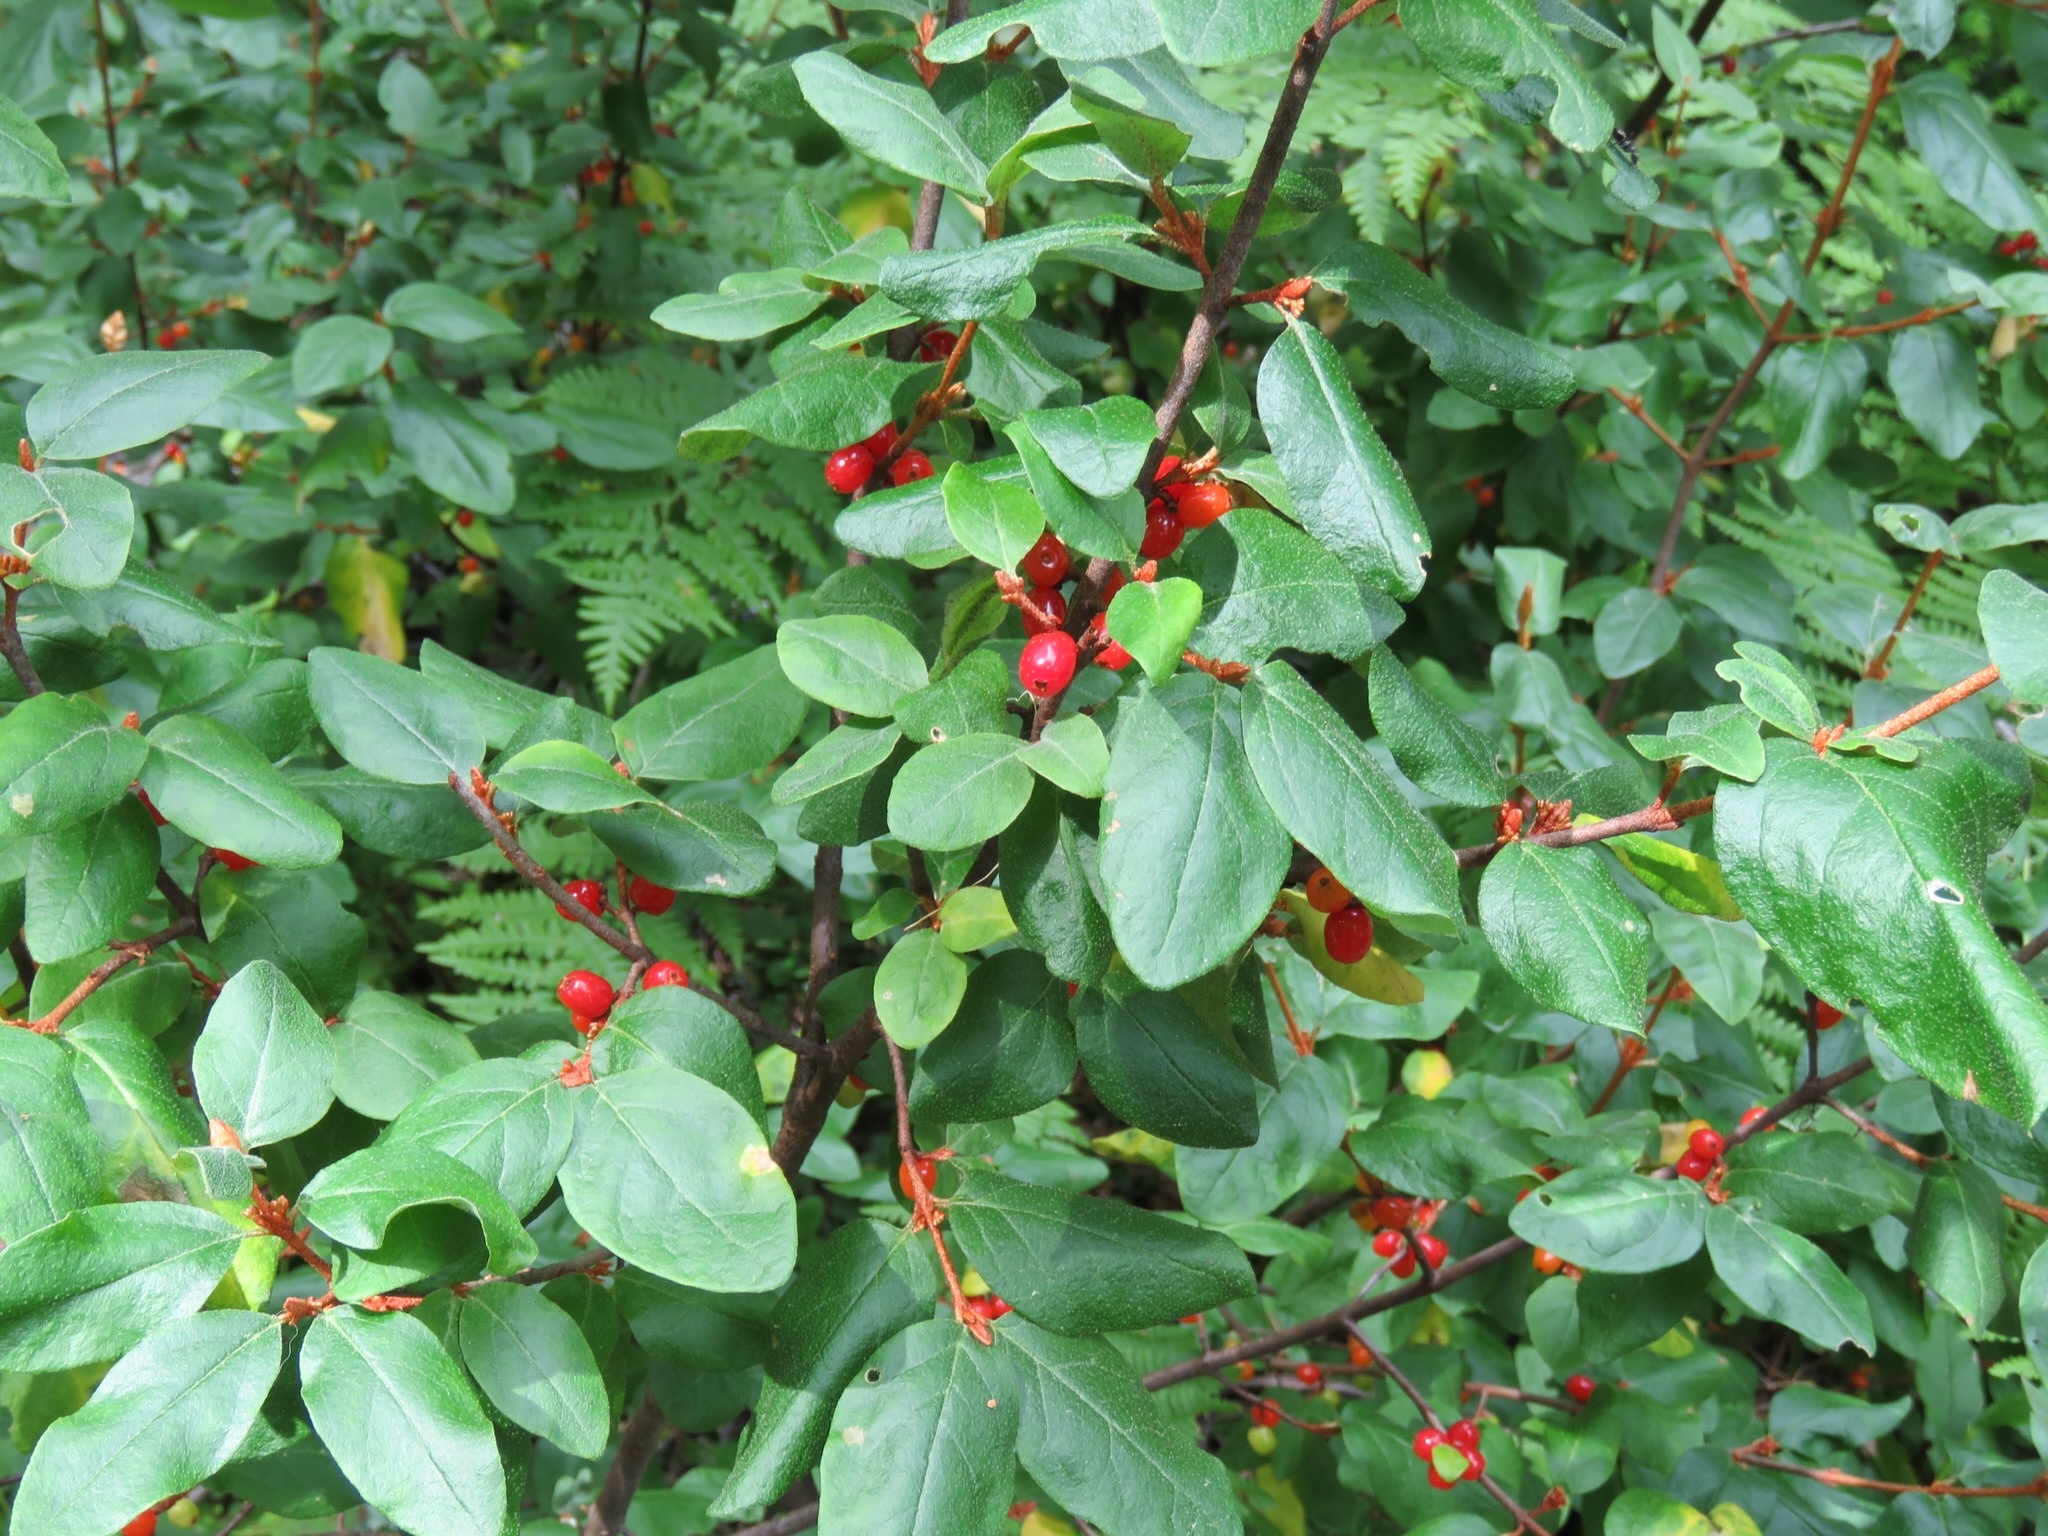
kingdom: Plantae
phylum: Tracheophyta
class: Magnoliopsida
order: Rosales
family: Elaeagnaceae
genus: Shepherdia
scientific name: Shepherdia canadensis
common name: Soapberry
